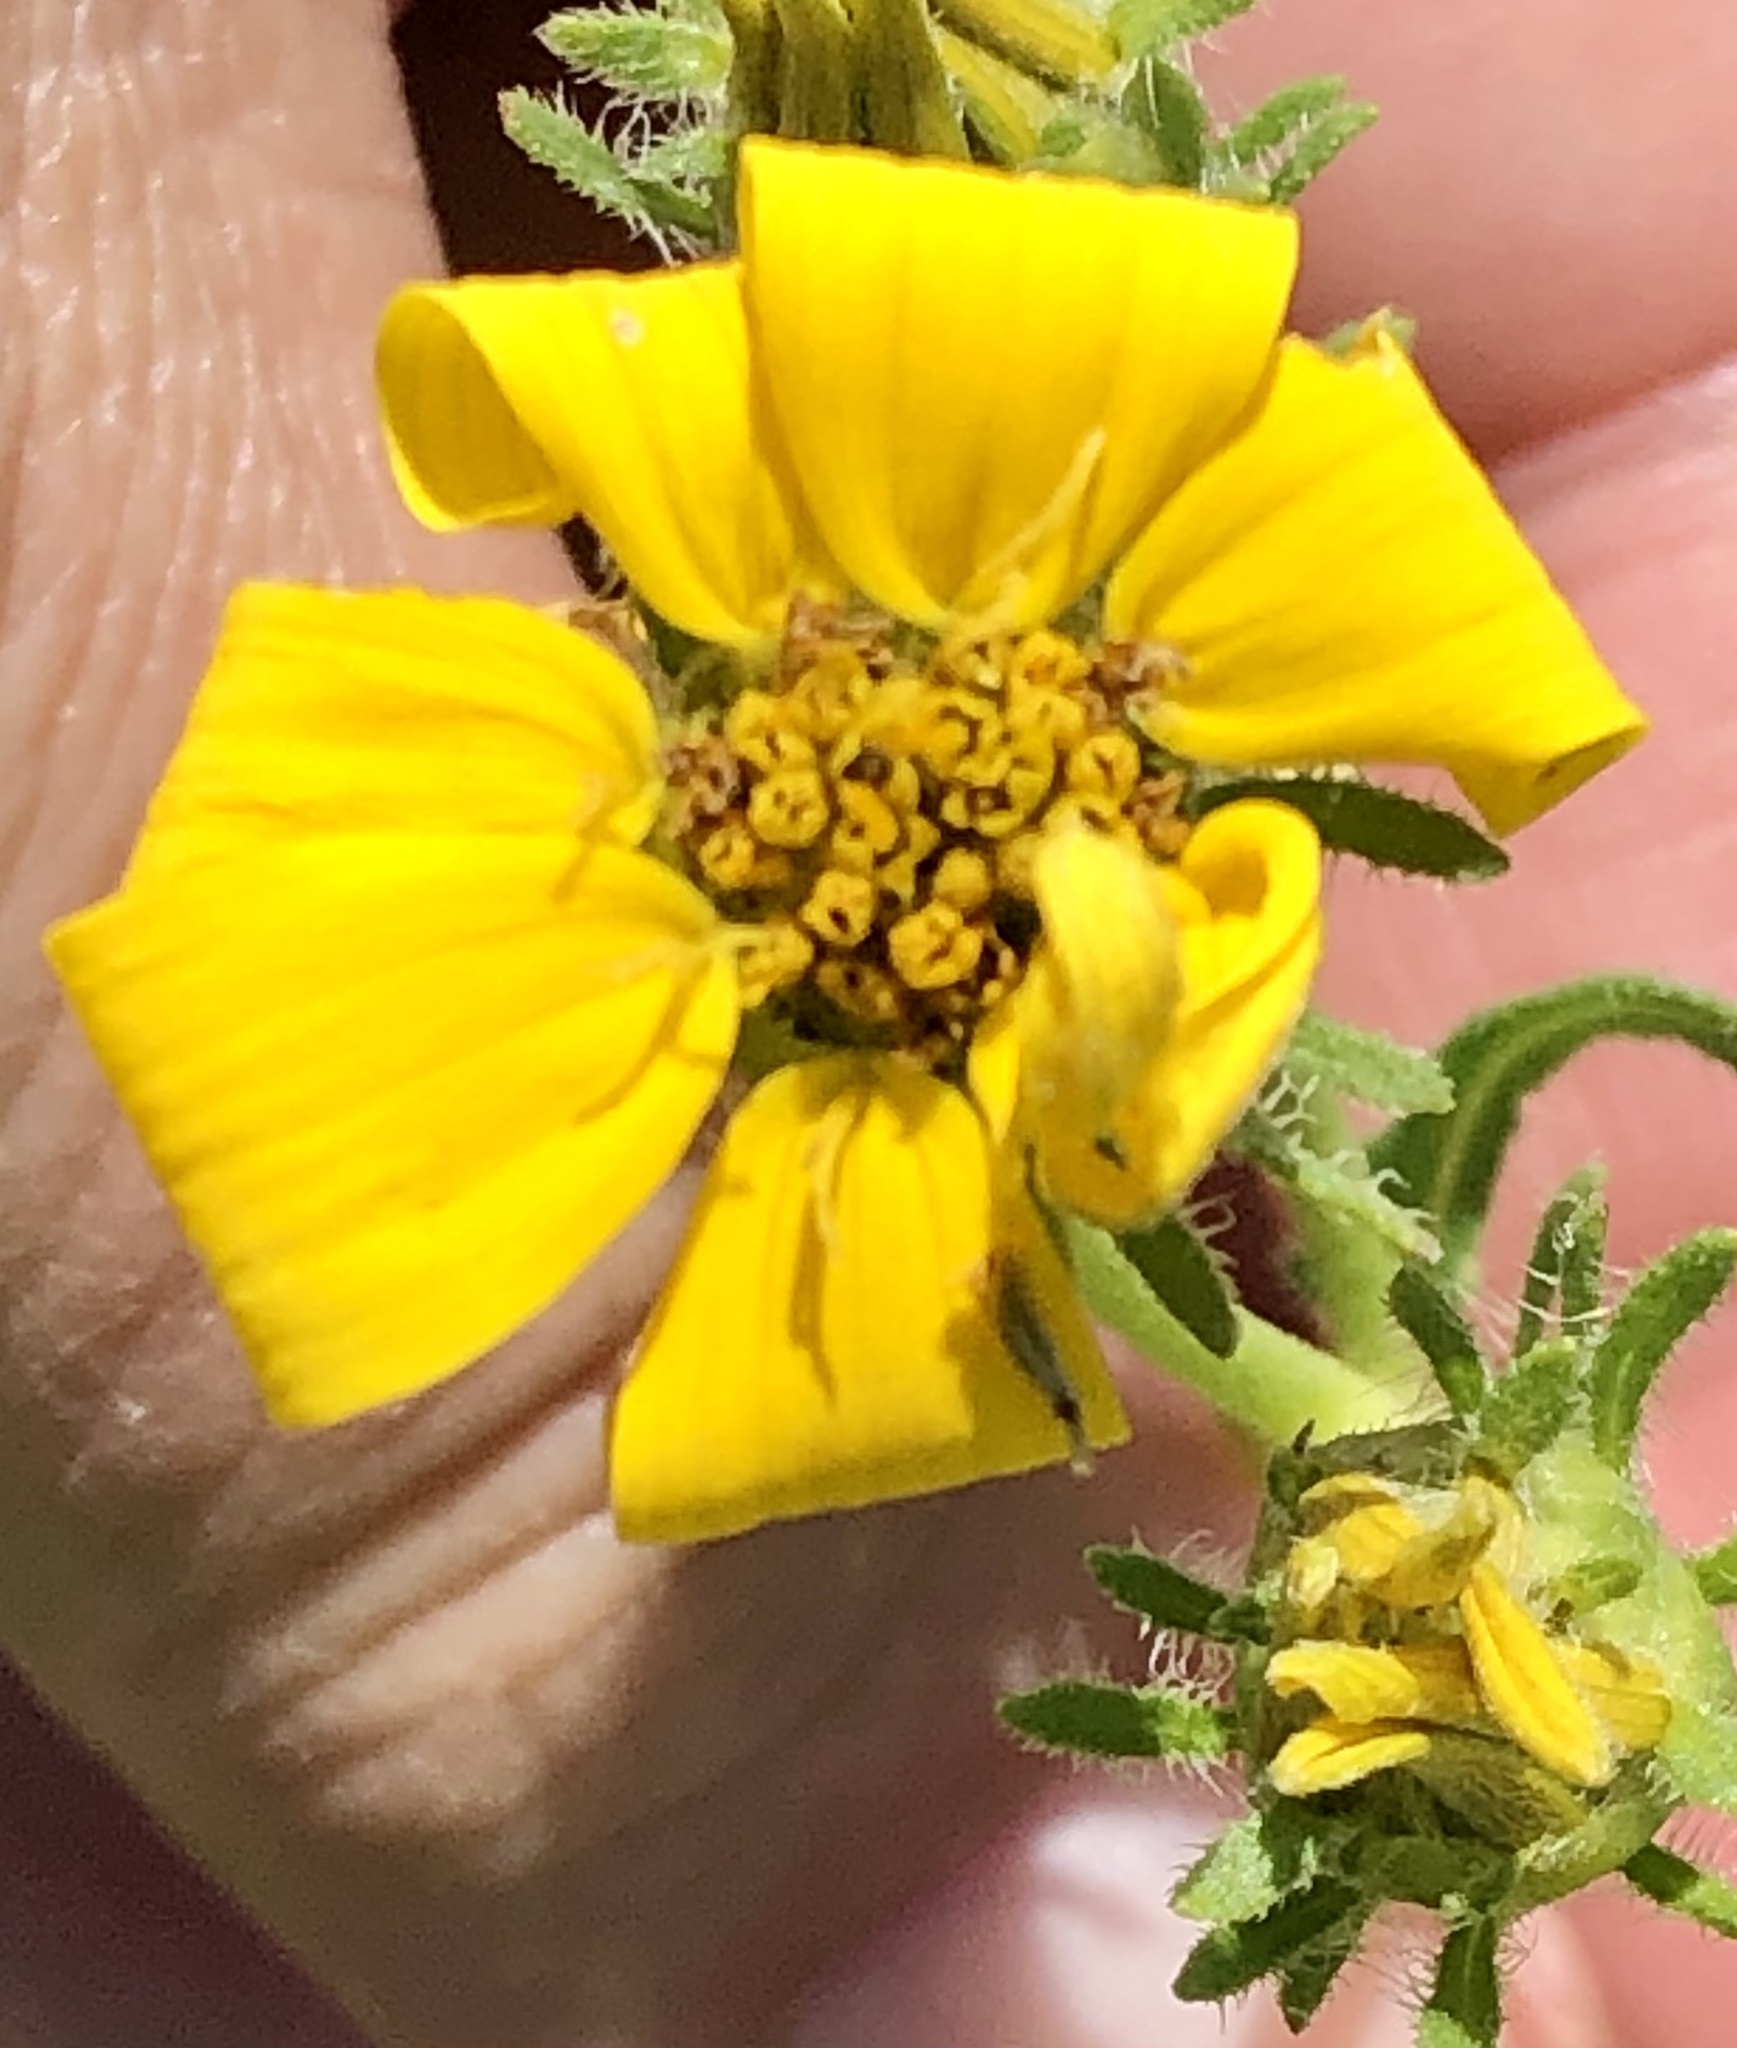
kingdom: Plantae
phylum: Tracheophyta
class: Magnoliopsida
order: Asterales
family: Asteraceae
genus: Engelmannia
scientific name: Engelmannia peristenia
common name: Engelmann's daisy
